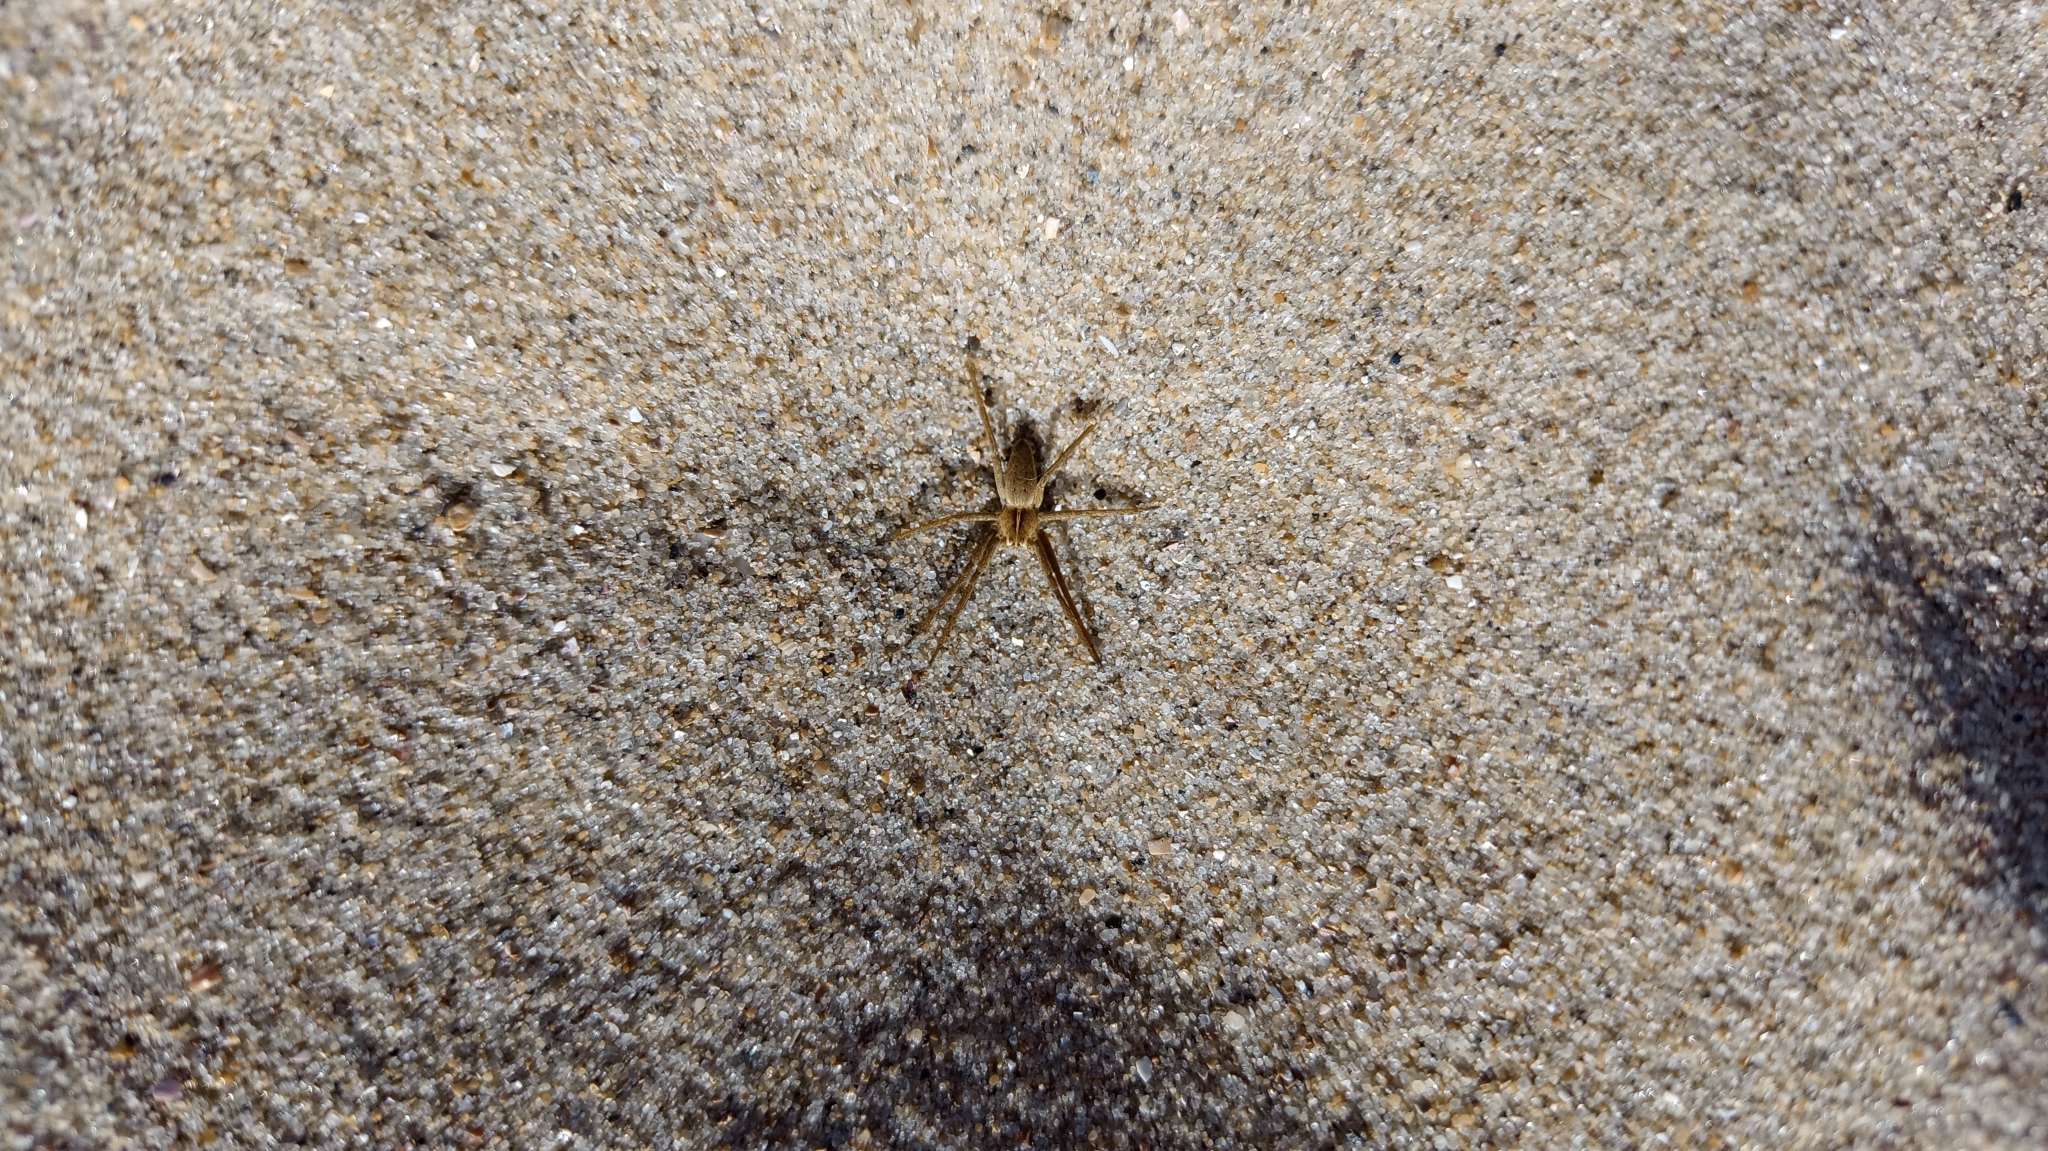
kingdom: Animalia
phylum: Arthropoda
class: Arachnida
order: Araneae
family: Pisauridae
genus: Pisaura
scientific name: Pisaura mirabilis
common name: Tent spider
